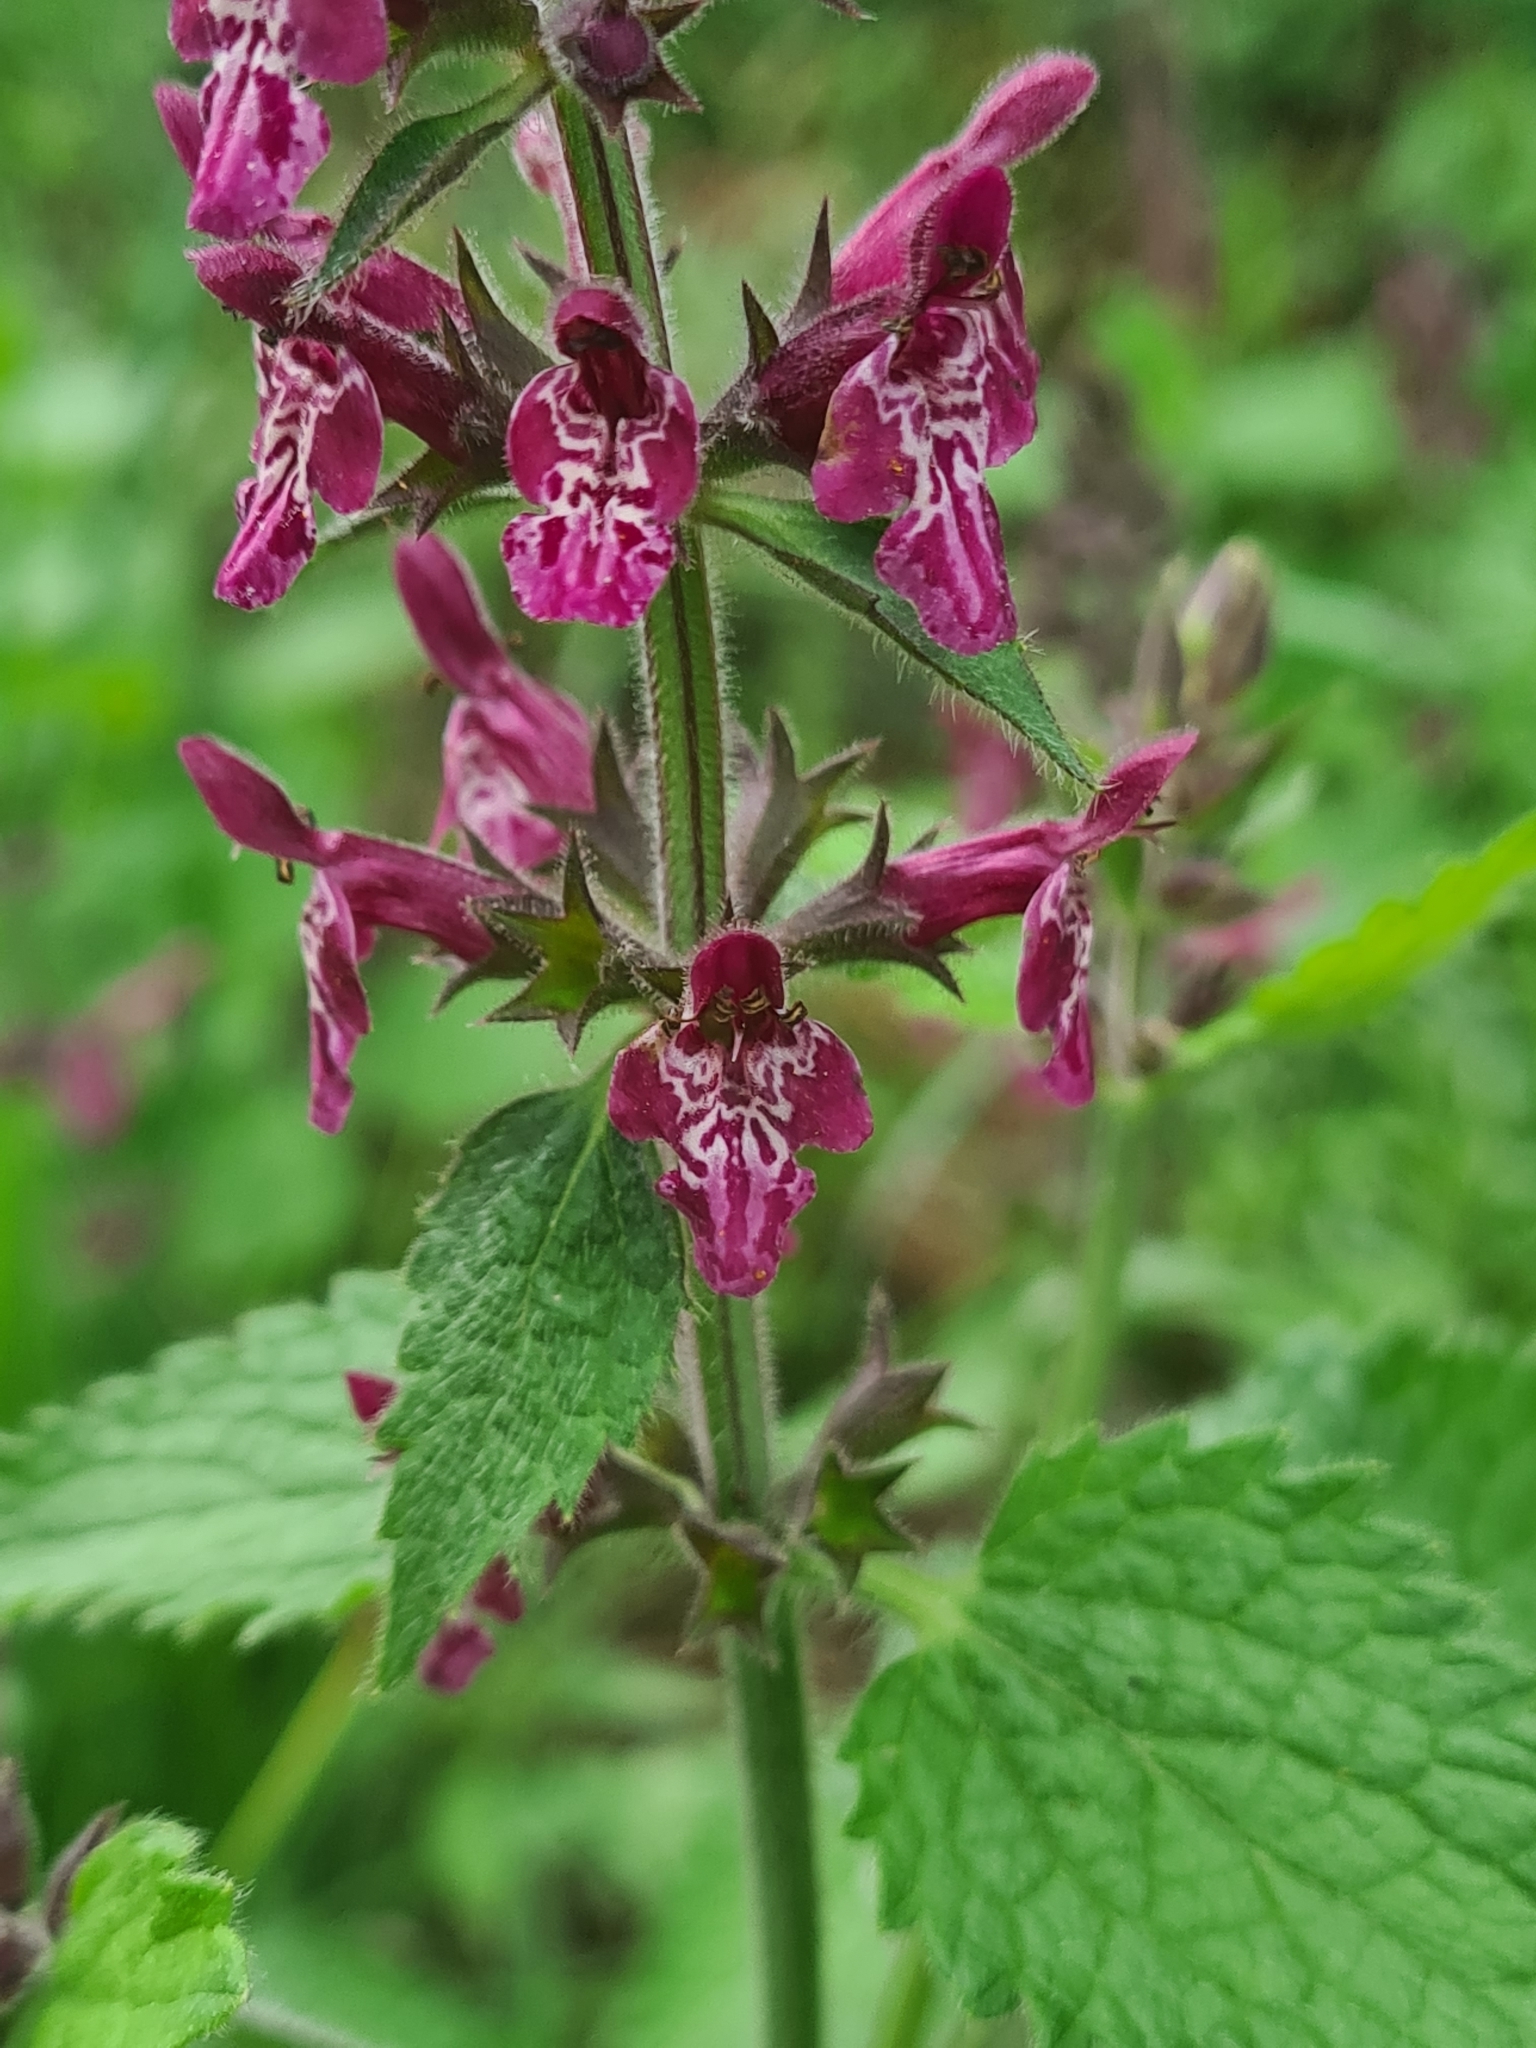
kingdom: Plantae
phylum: Tracheophyta
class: Magnoliopsida
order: Lamiales
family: Lamiaceae
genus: Stachys
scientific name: Stachys sylvatica
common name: Hedge woundwort
